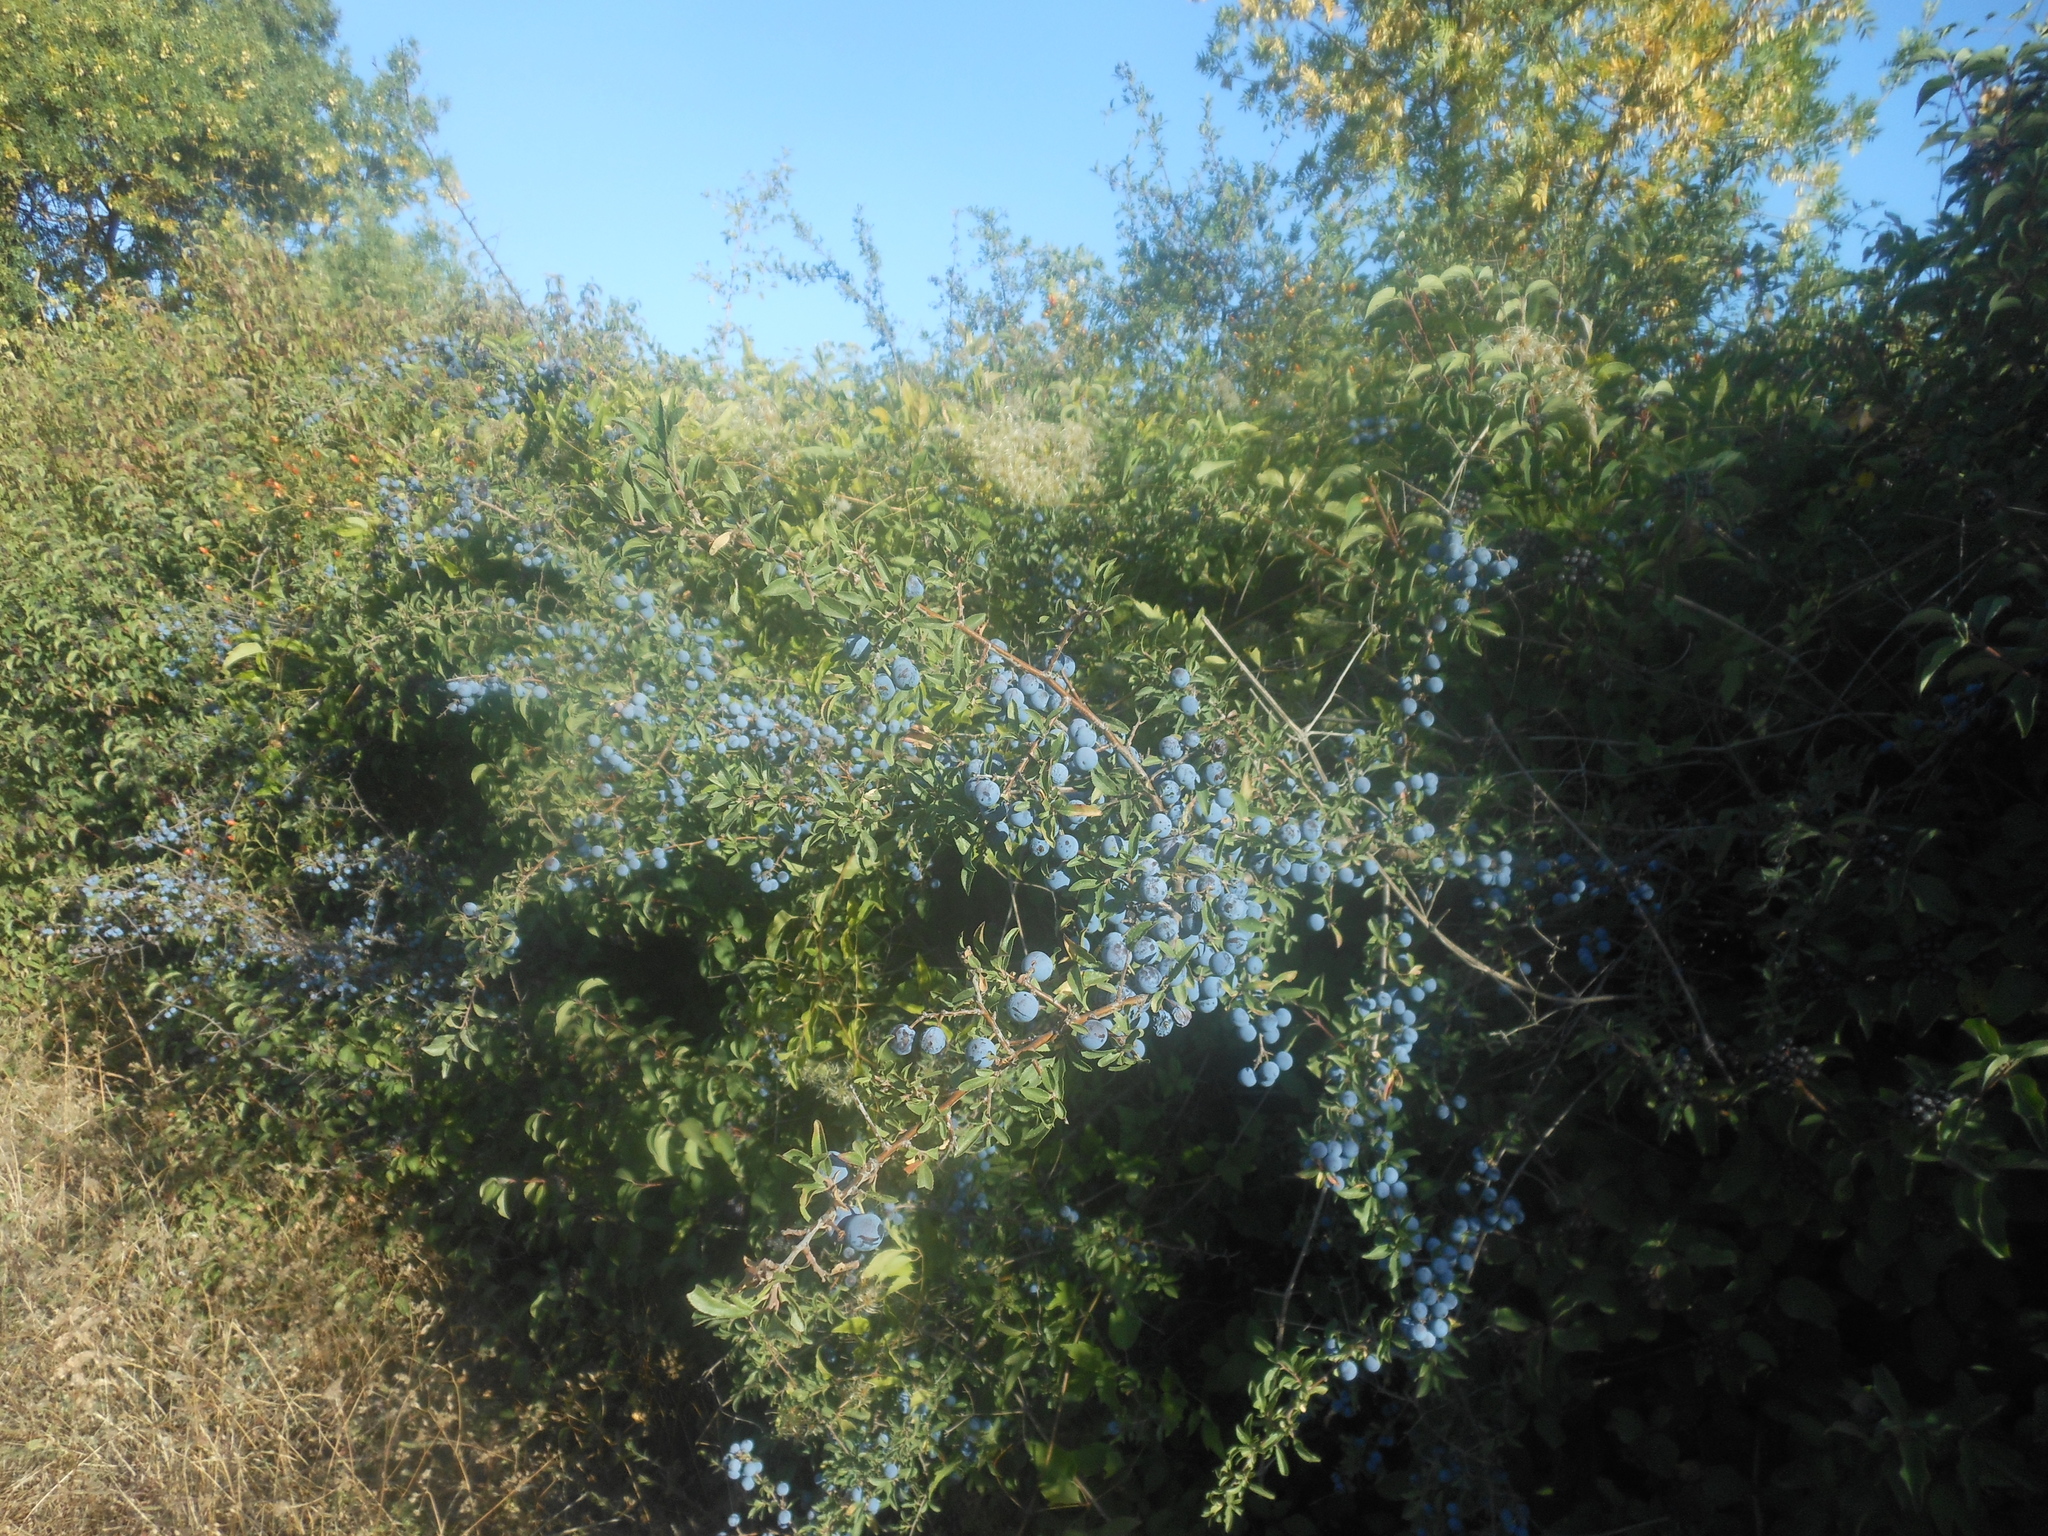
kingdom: Plantae
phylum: Tracheophyta
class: Magnoliopsida
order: Rosales
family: Rosaceae
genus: Prunus
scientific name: Prunus spinosa
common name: Blackthorn
